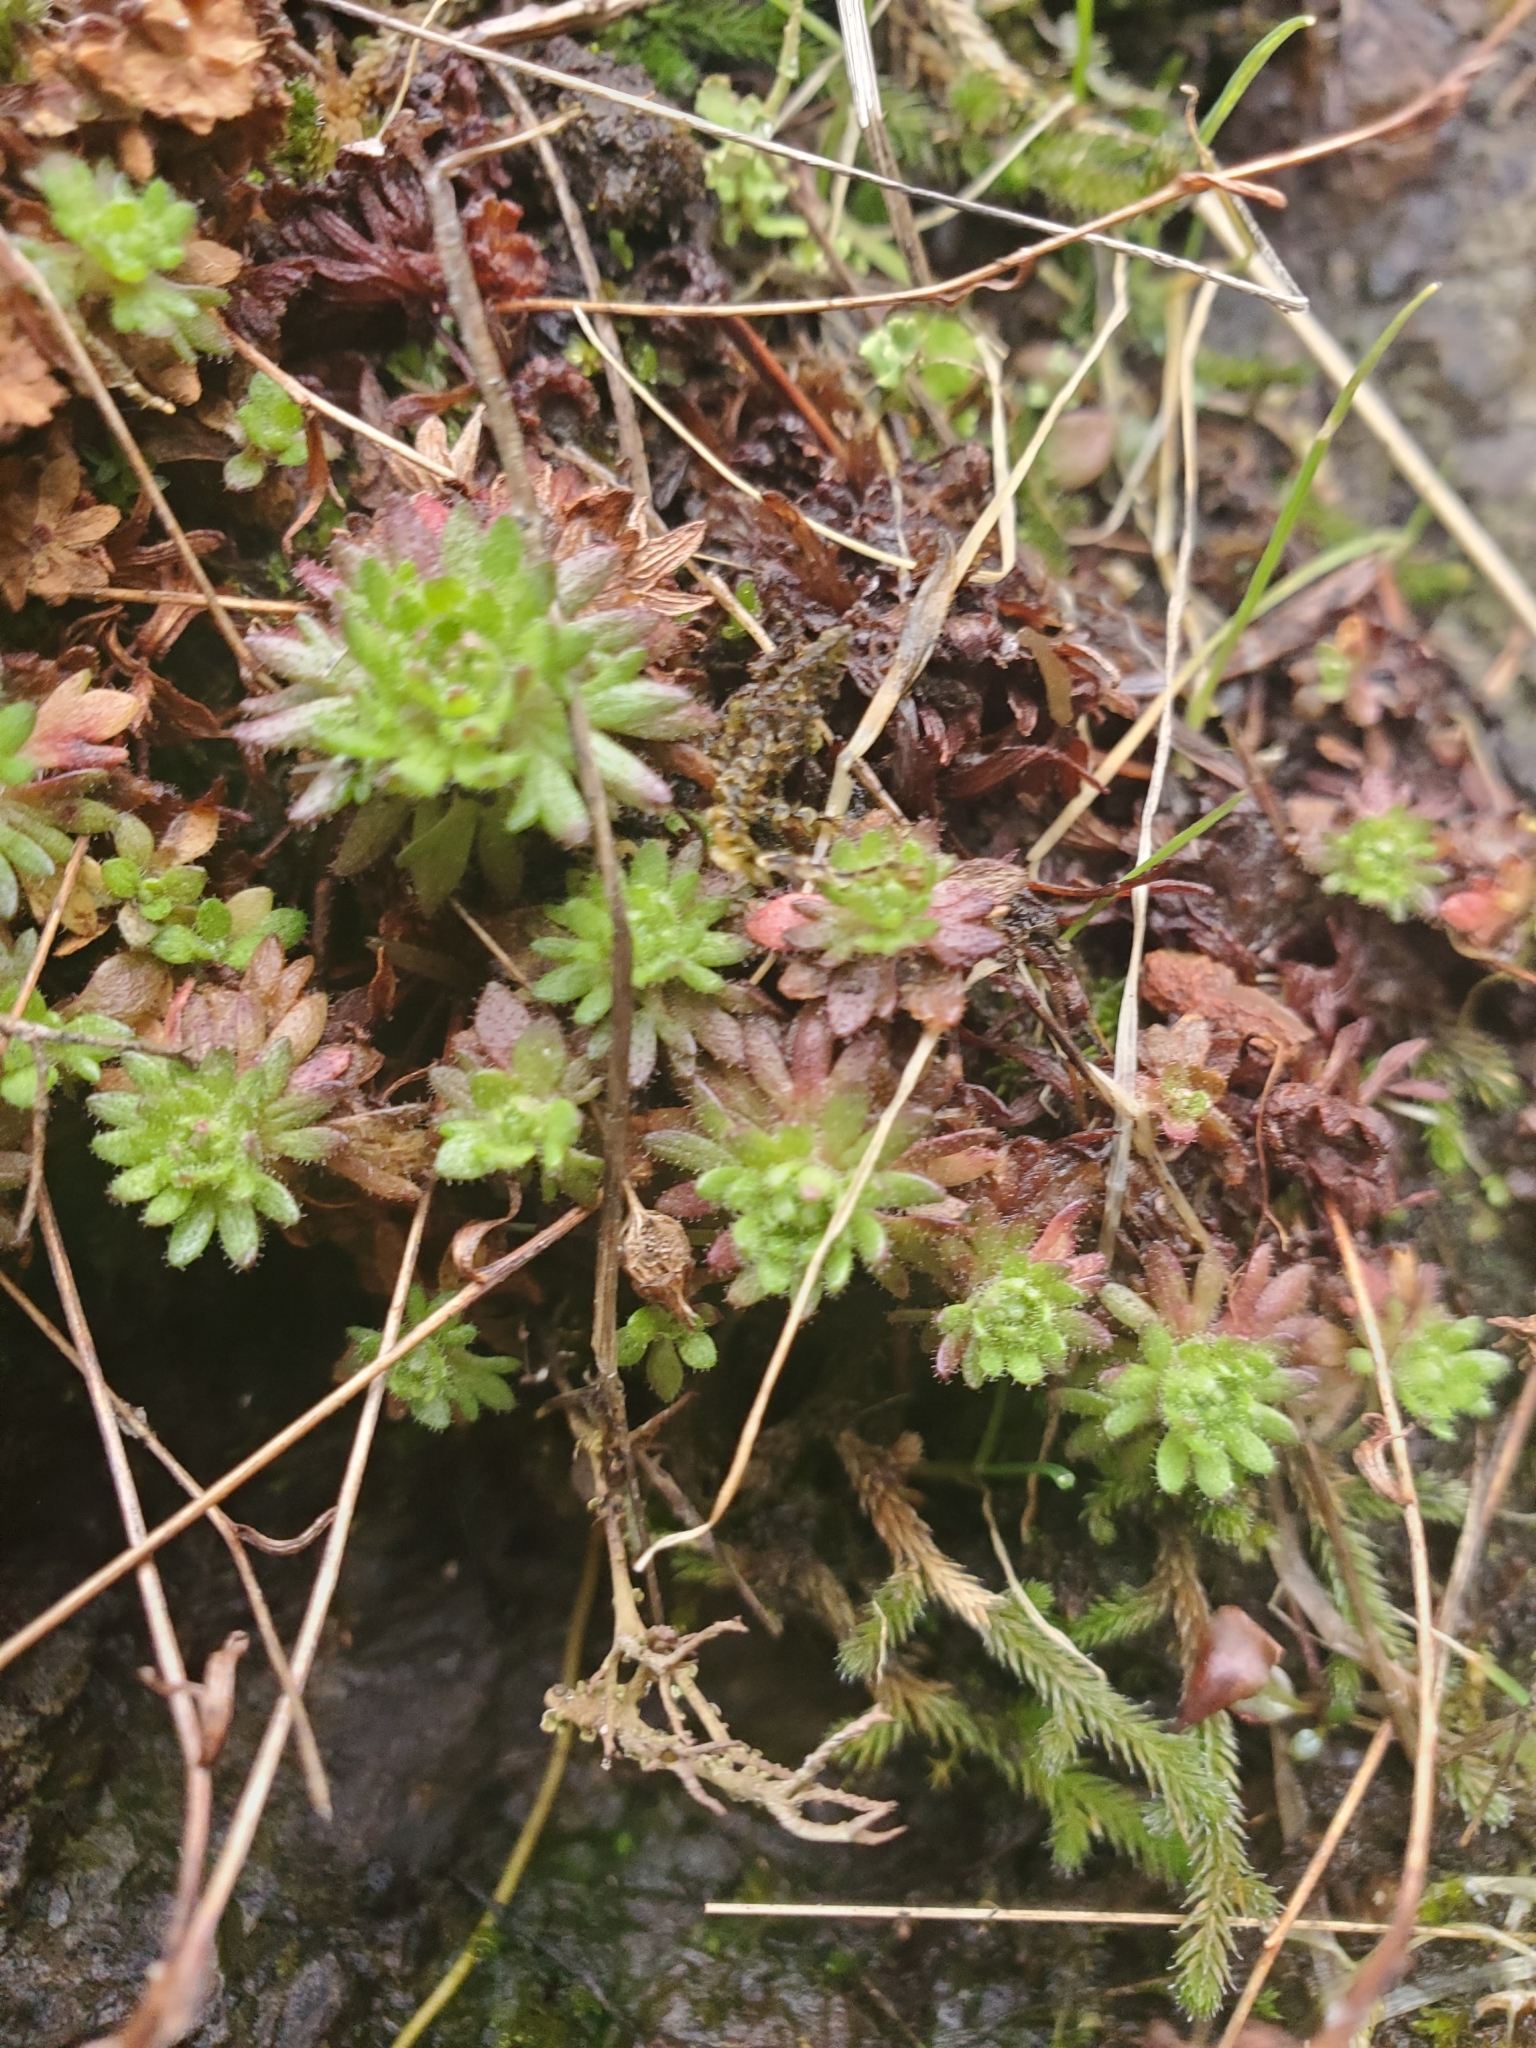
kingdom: Plantae
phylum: Tracheophyta
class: Magnoliopsida
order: Saxifragales
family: Saxifragaceae
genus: Saxifraga
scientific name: Saxifraga cespitosa
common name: Tufted saxifrage
